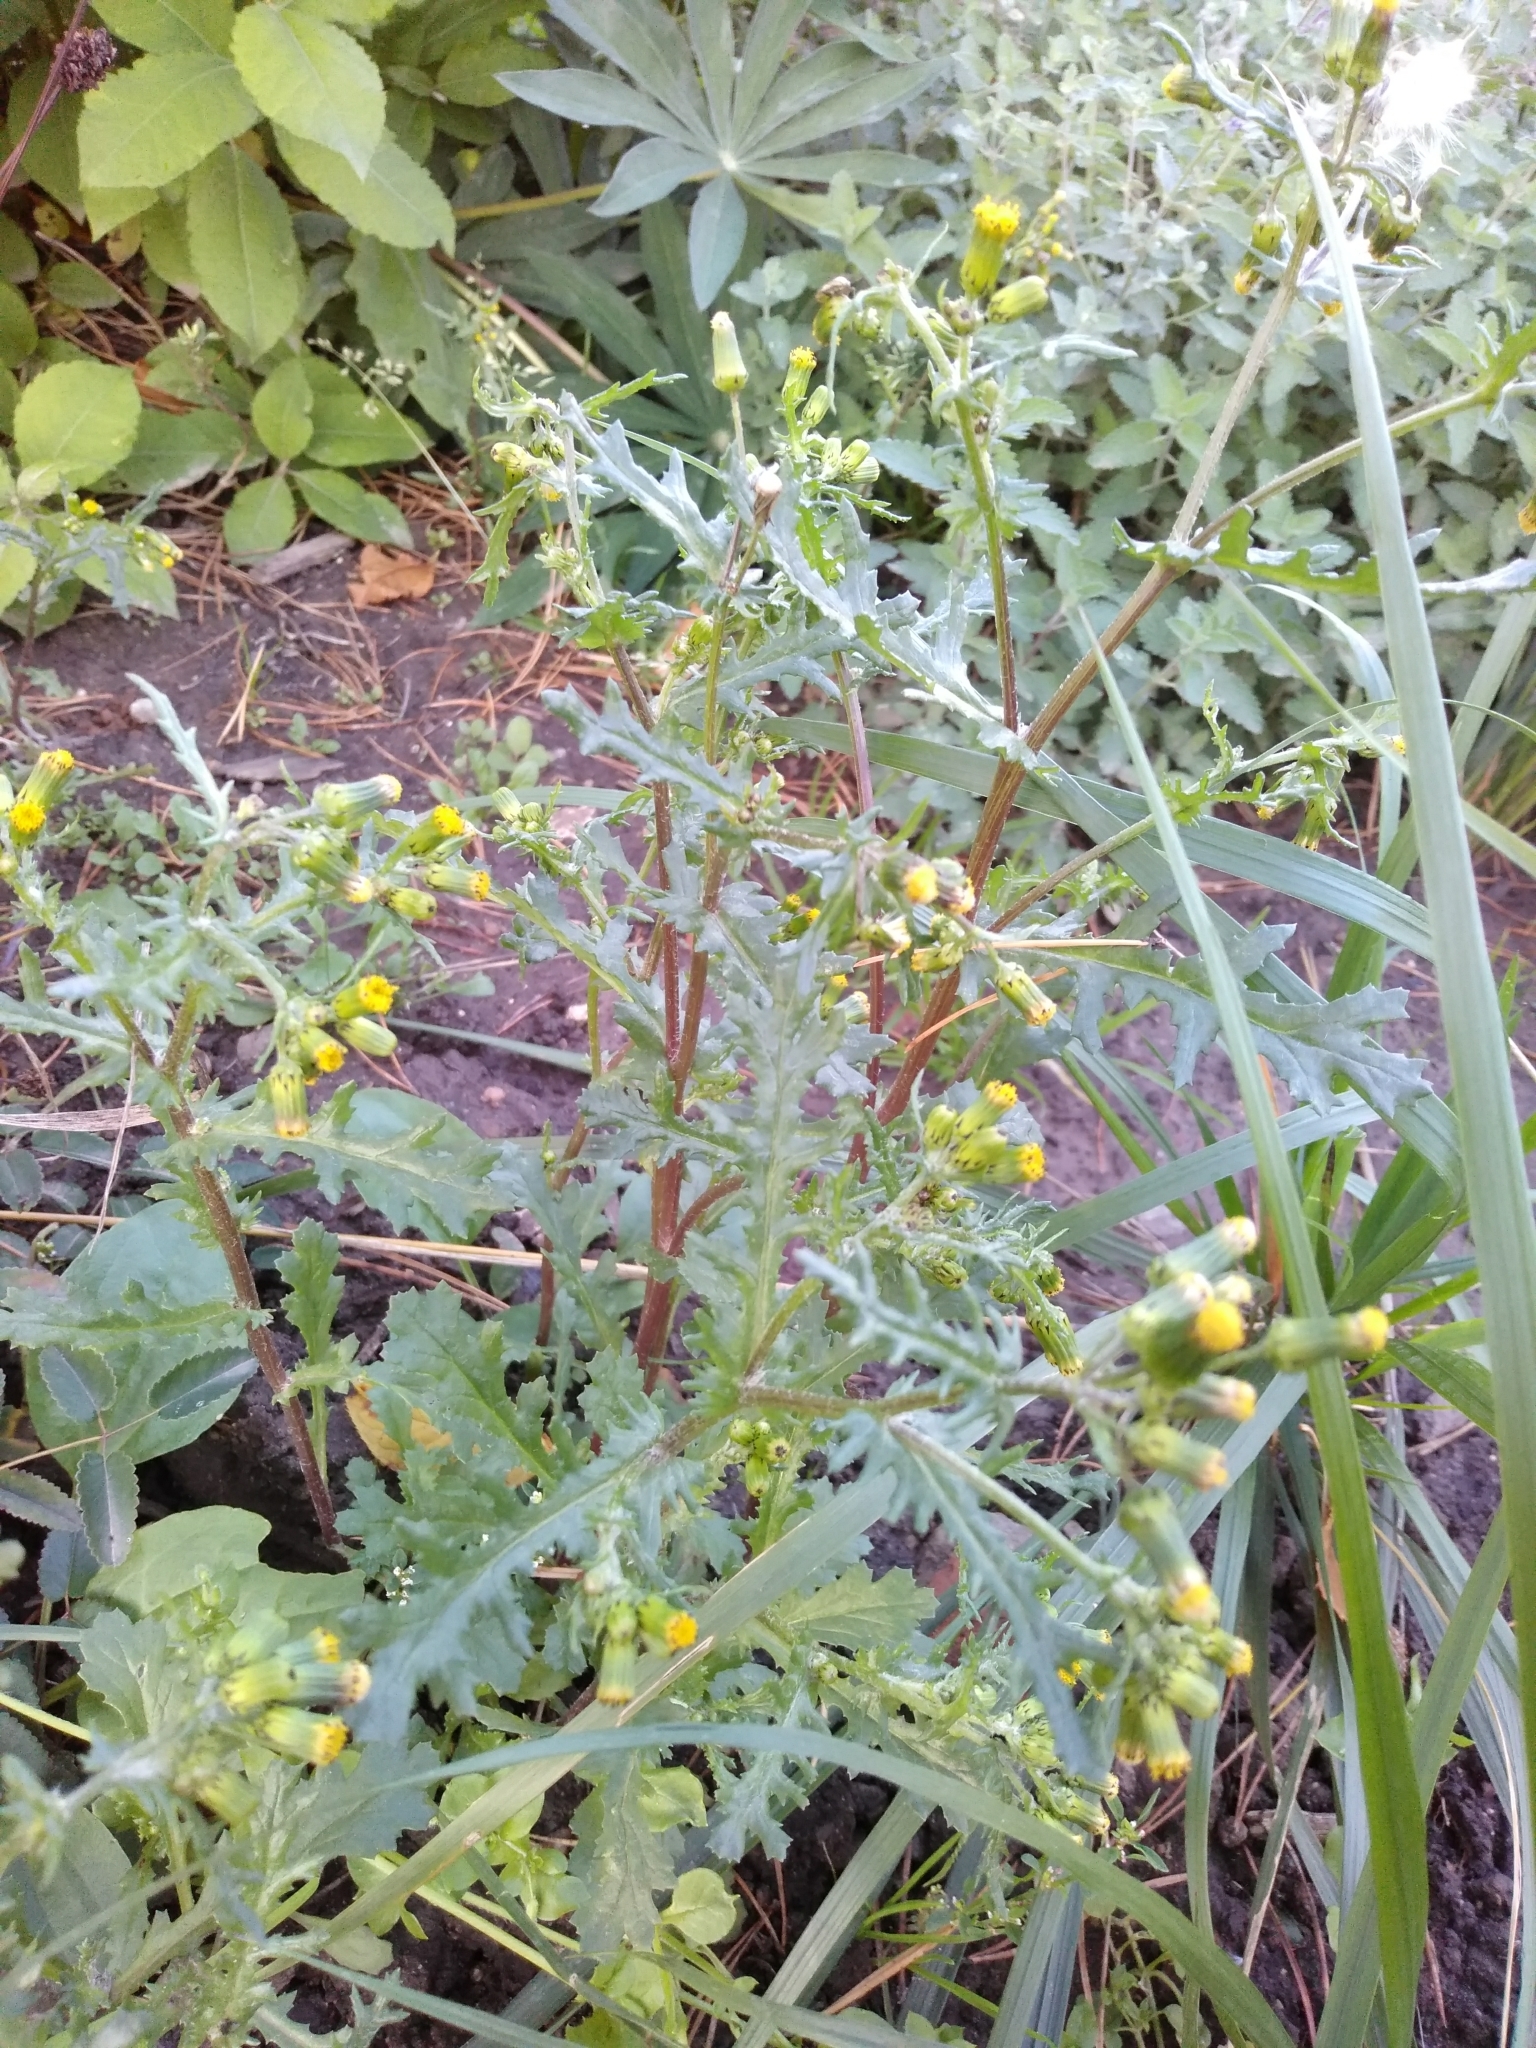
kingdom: Plantae
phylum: Tracheophyta
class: Magnoliopsida
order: Asterales
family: Asteraceae
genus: Senecio
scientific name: Senecio vulgaris
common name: Old-man-in-the-spring
